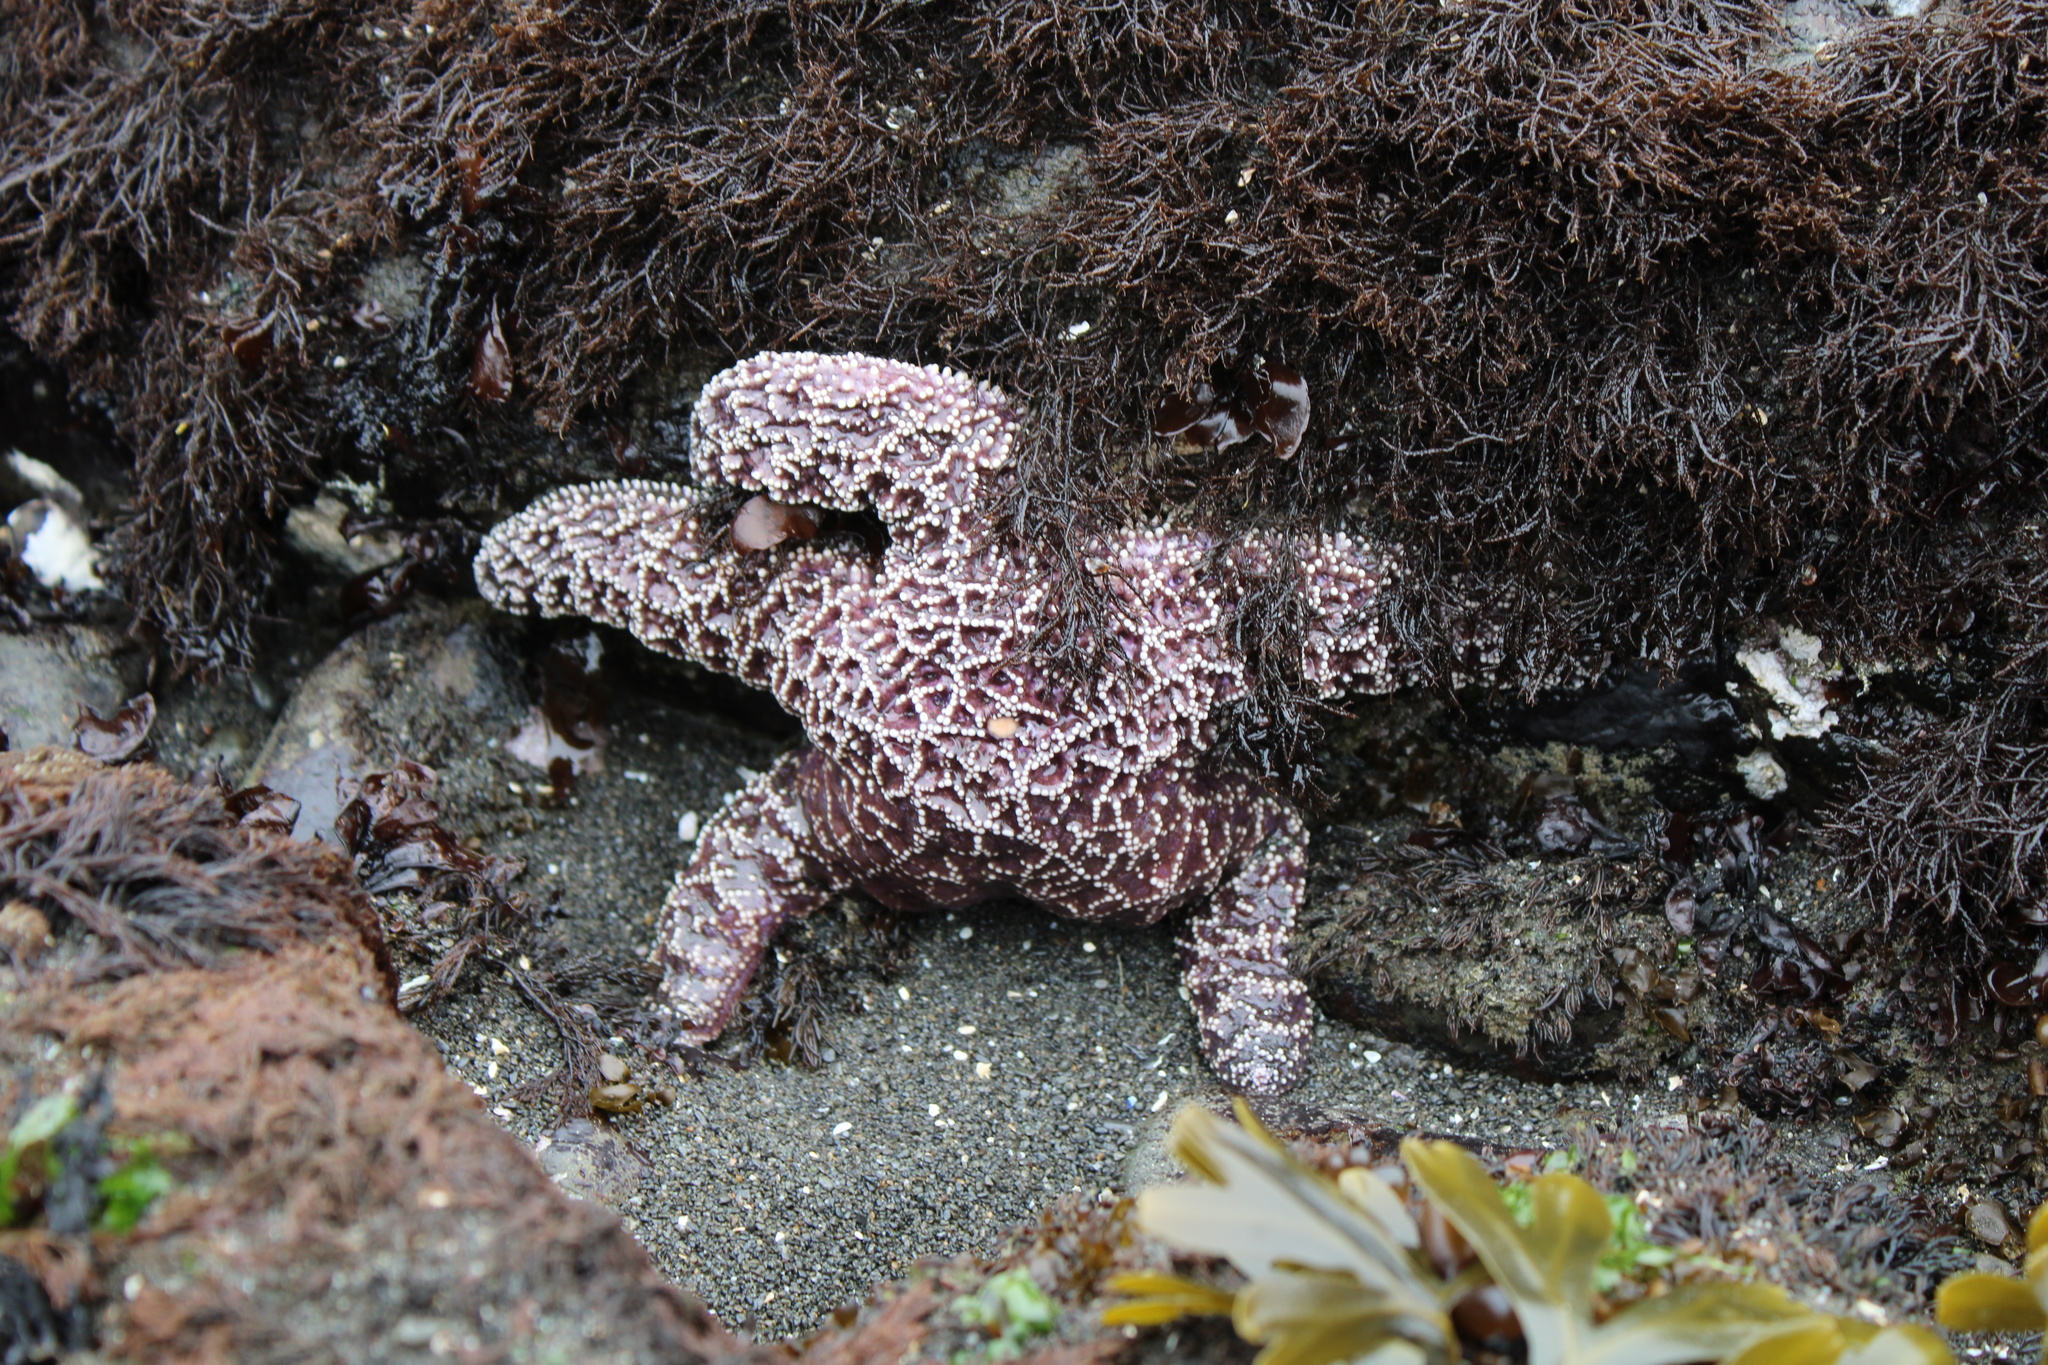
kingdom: Animalia
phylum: Echinodermata
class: Asteroidea
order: Forcipulatida
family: Asteriidae
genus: Pisaster
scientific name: Pisaster ochraceus
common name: Ochre stars
